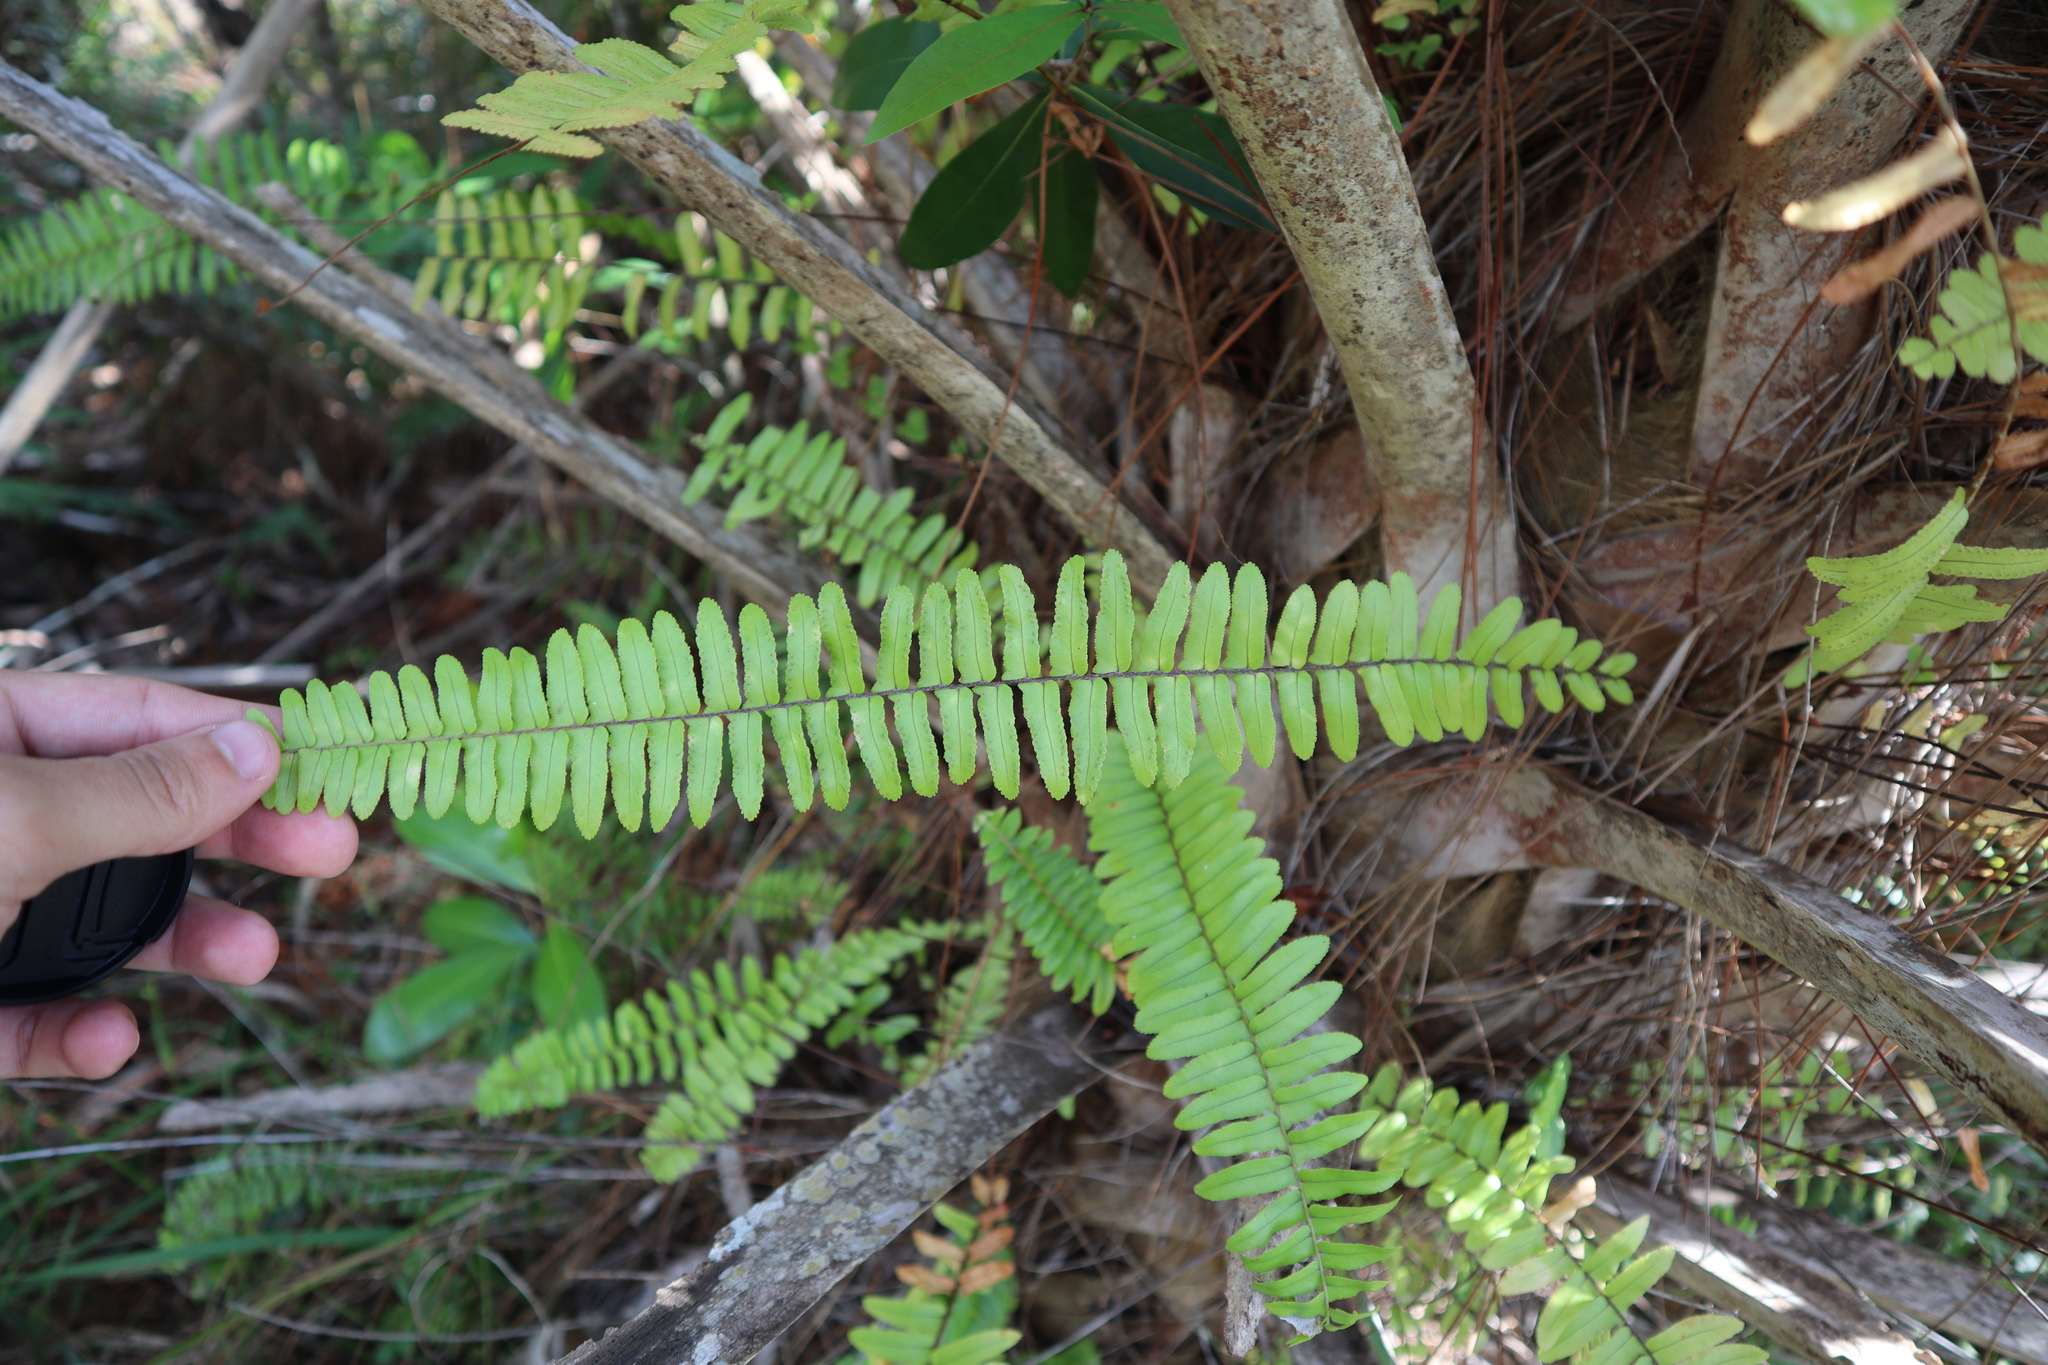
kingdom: Plantae
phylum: Tracheophyta
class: Polypodiopsida
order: Polypodiales
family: Nephrolepidaceae
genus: Nephrolepis
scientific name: Nephrolepis exaltata
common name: Sword fern
